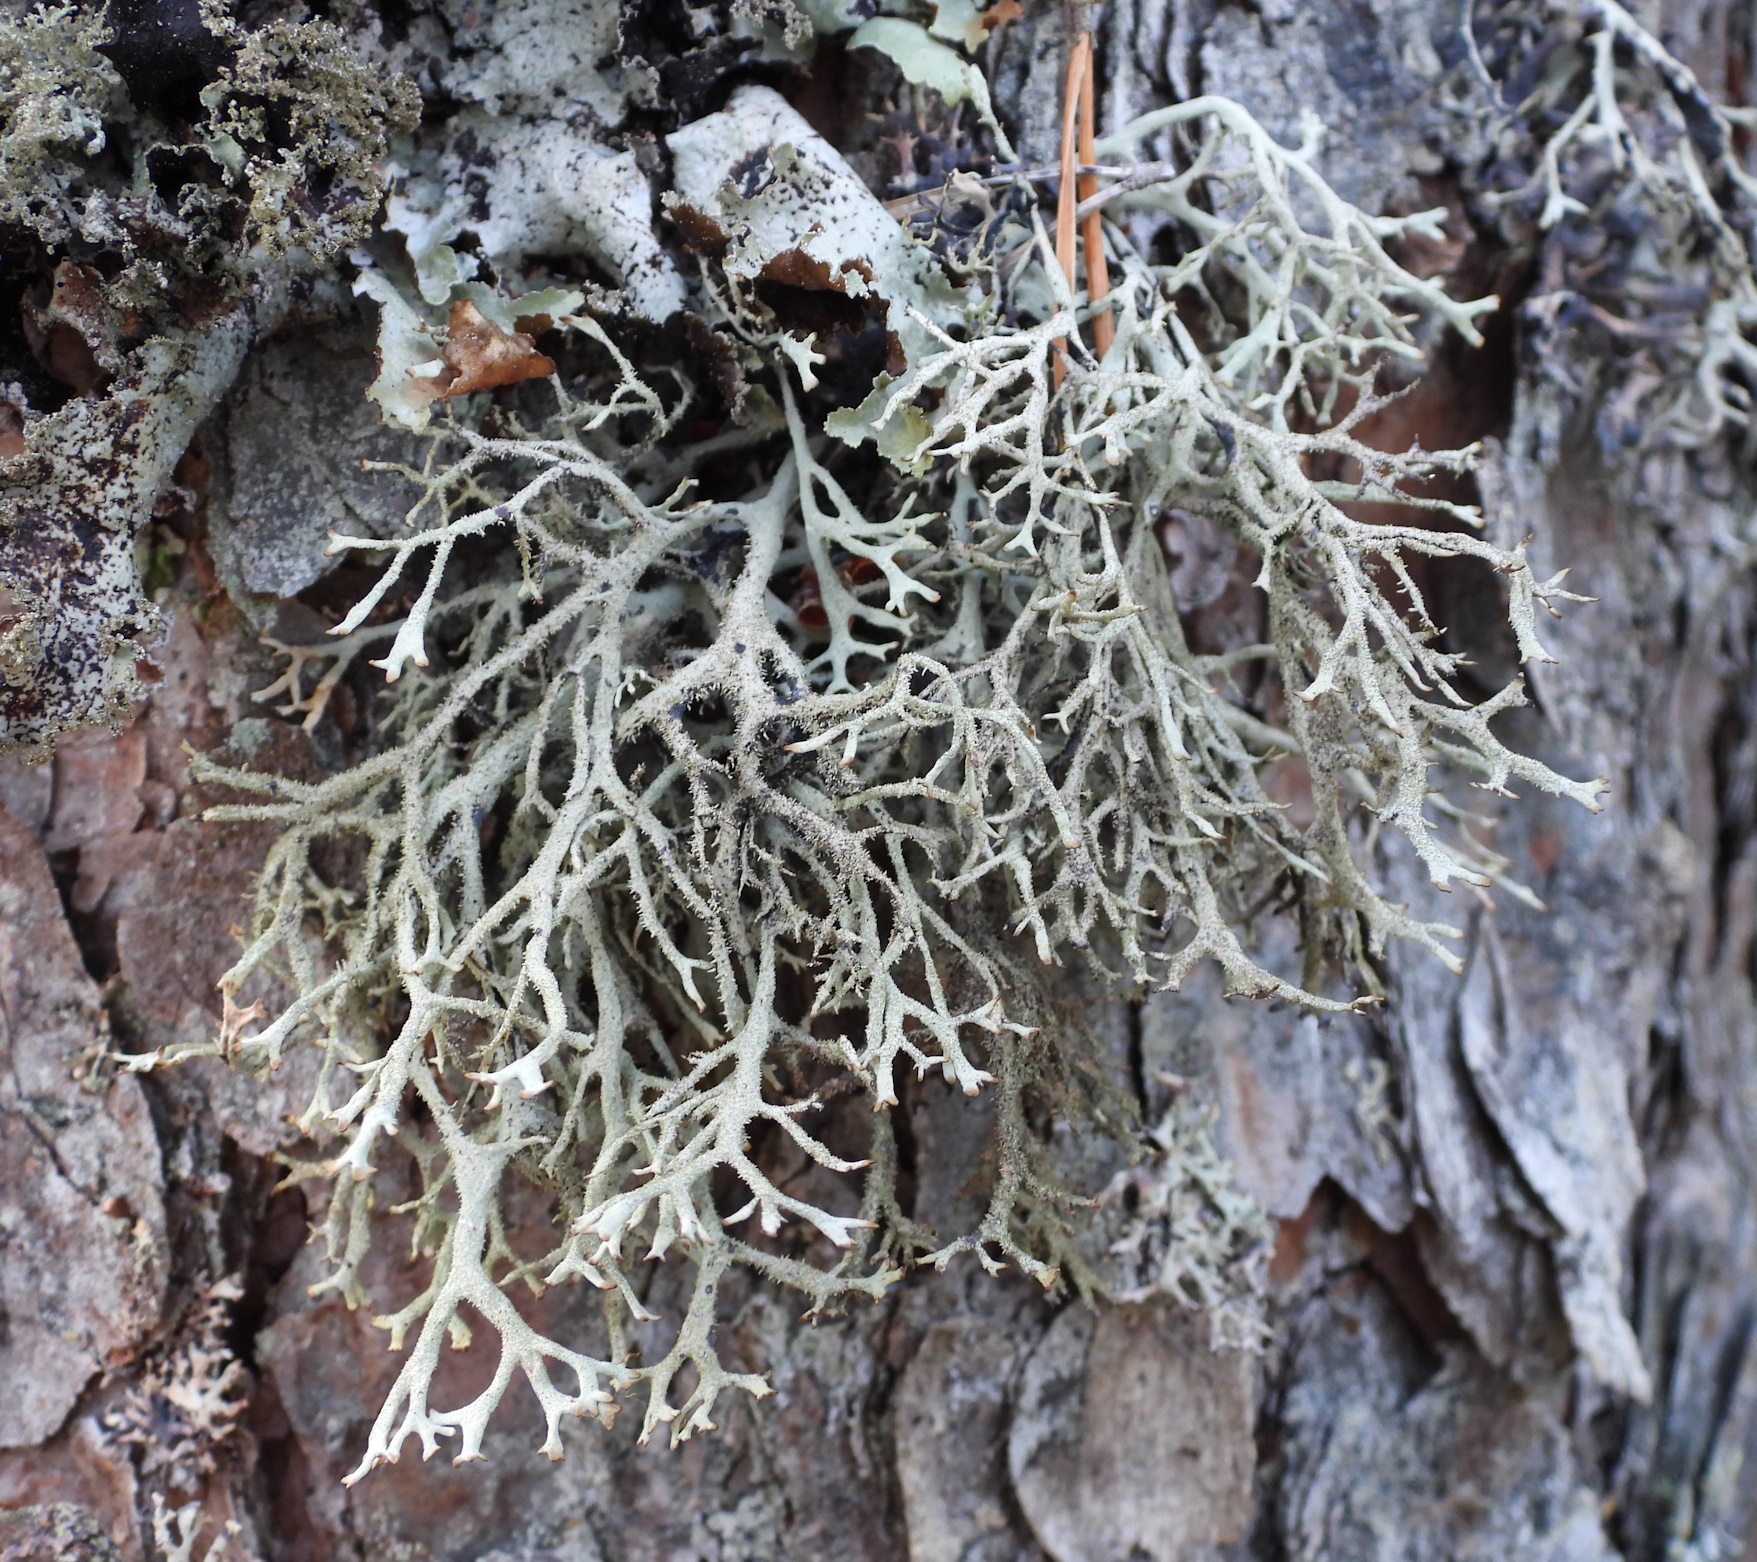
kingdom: Fungi
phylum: Ascomycota
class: Lecanoromycetes
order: Lecanorales
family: Parmeliaceae
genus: Pseudevernia
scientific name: Pseudevernia furfuracea
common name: Tree moss
